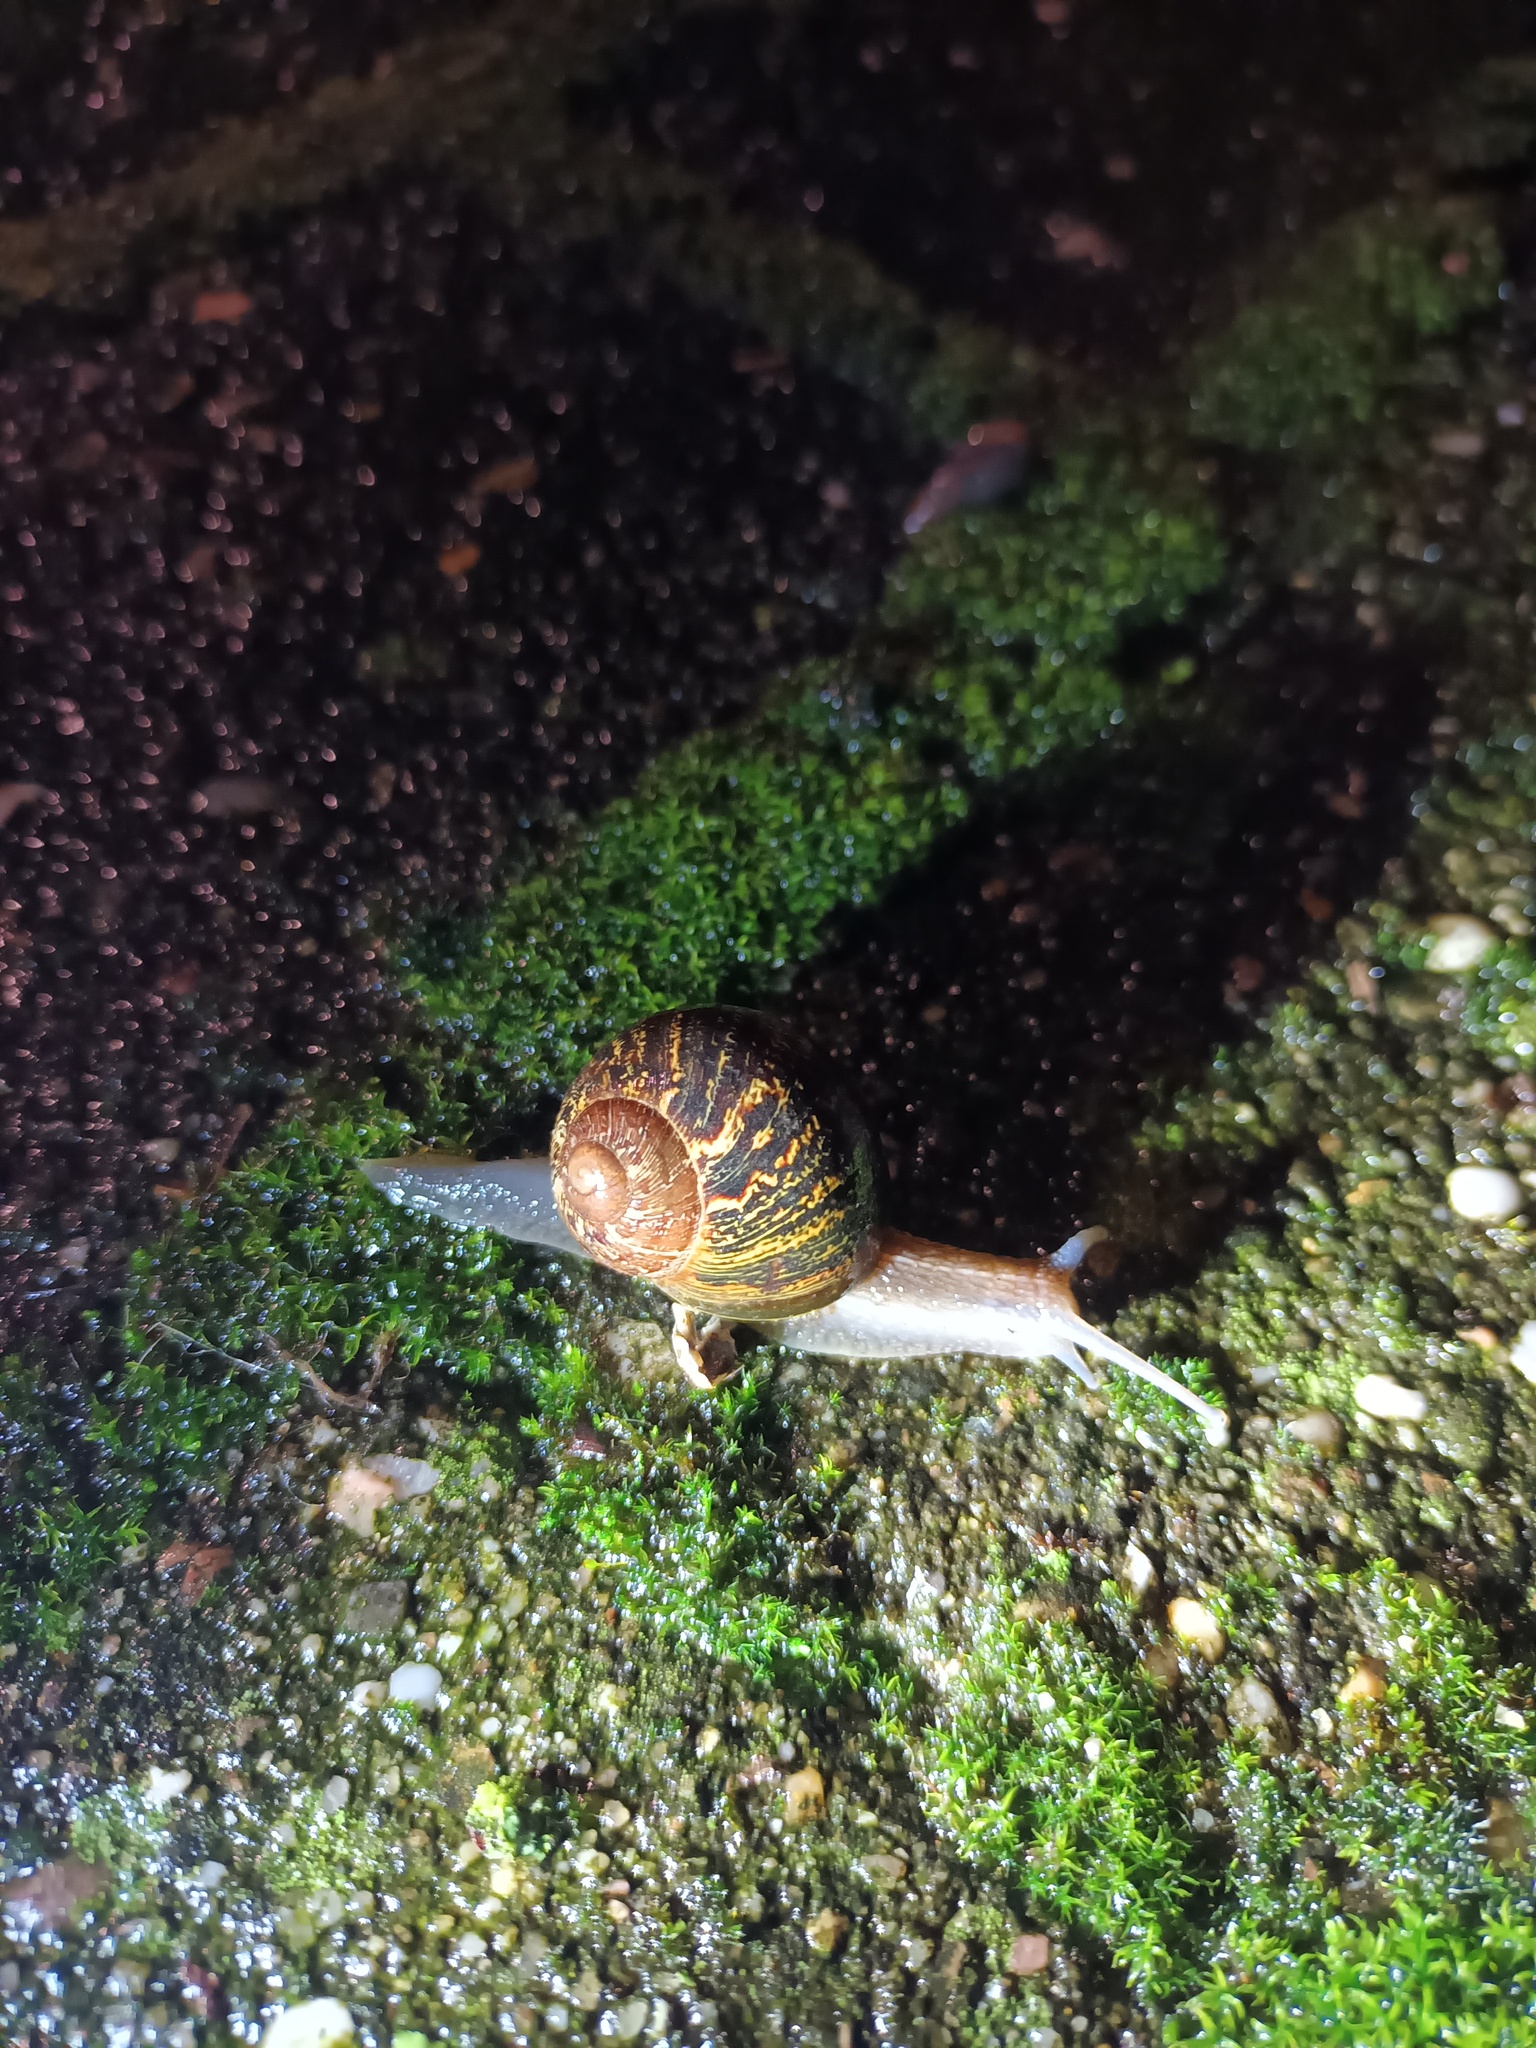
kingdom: Animalia
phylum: Mollusca
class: Gastropoda
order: Stylommatophora
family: Helicidae
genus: Cornu
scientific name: Cornu aspersum
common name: Brown garden snail
